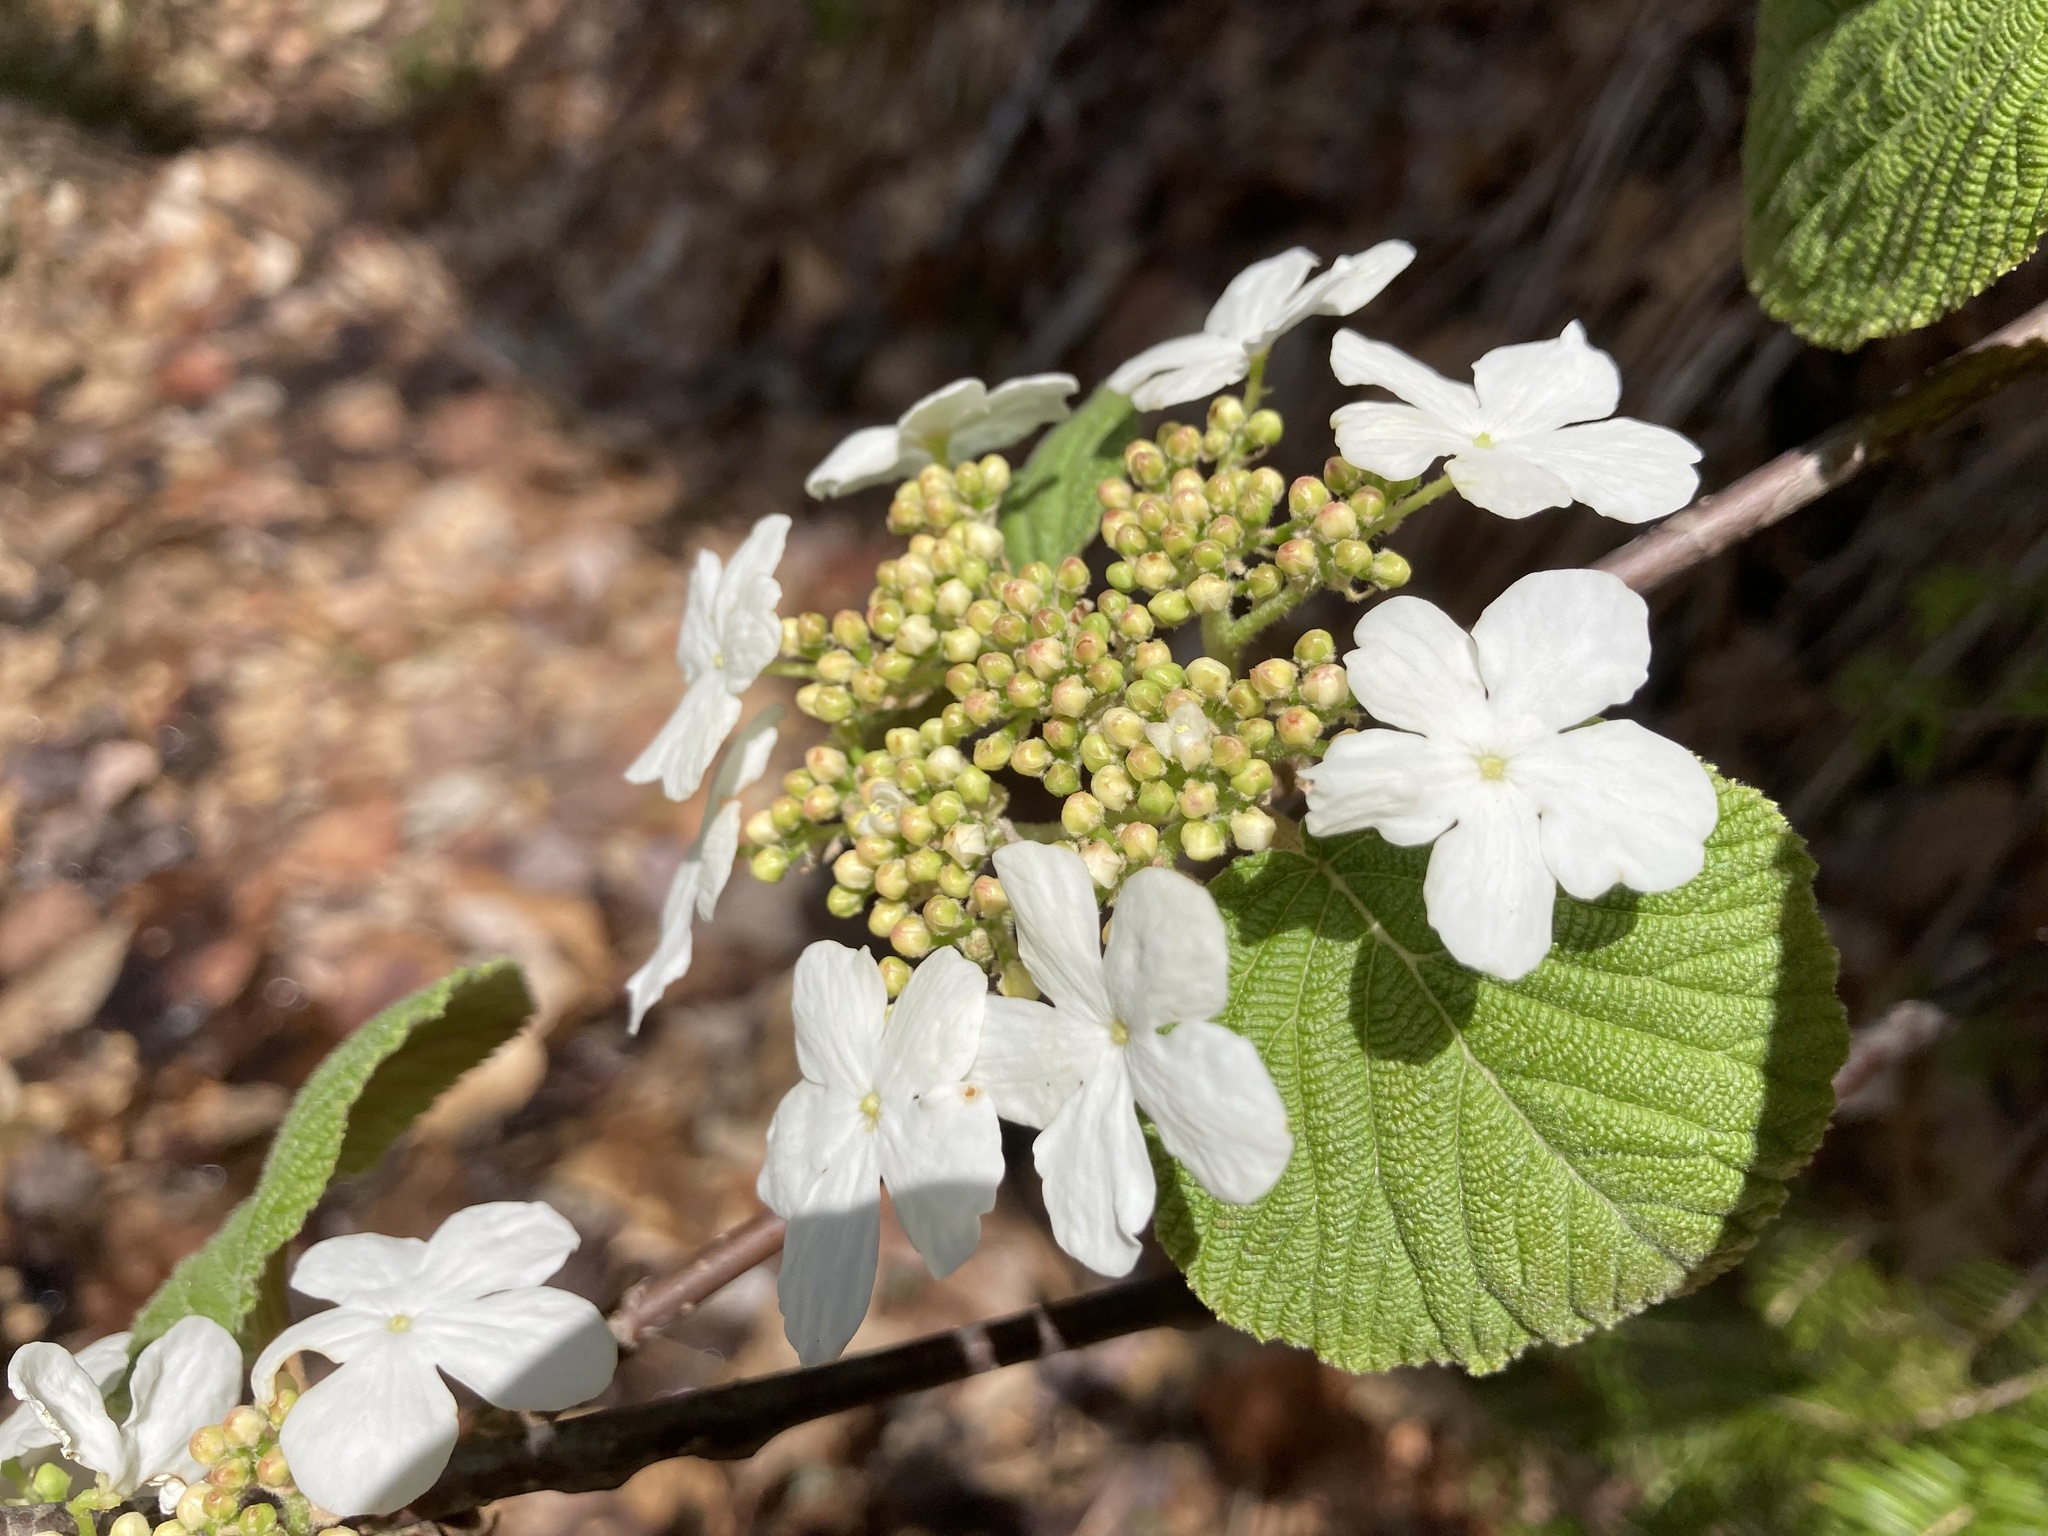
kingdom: Plantae
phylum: Tracheophyta
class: Magnoliopsida
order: Dipsacales
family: Viburnaceae
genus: Viburnum
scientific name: Viburnum lantanoides
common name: Hobblebush
